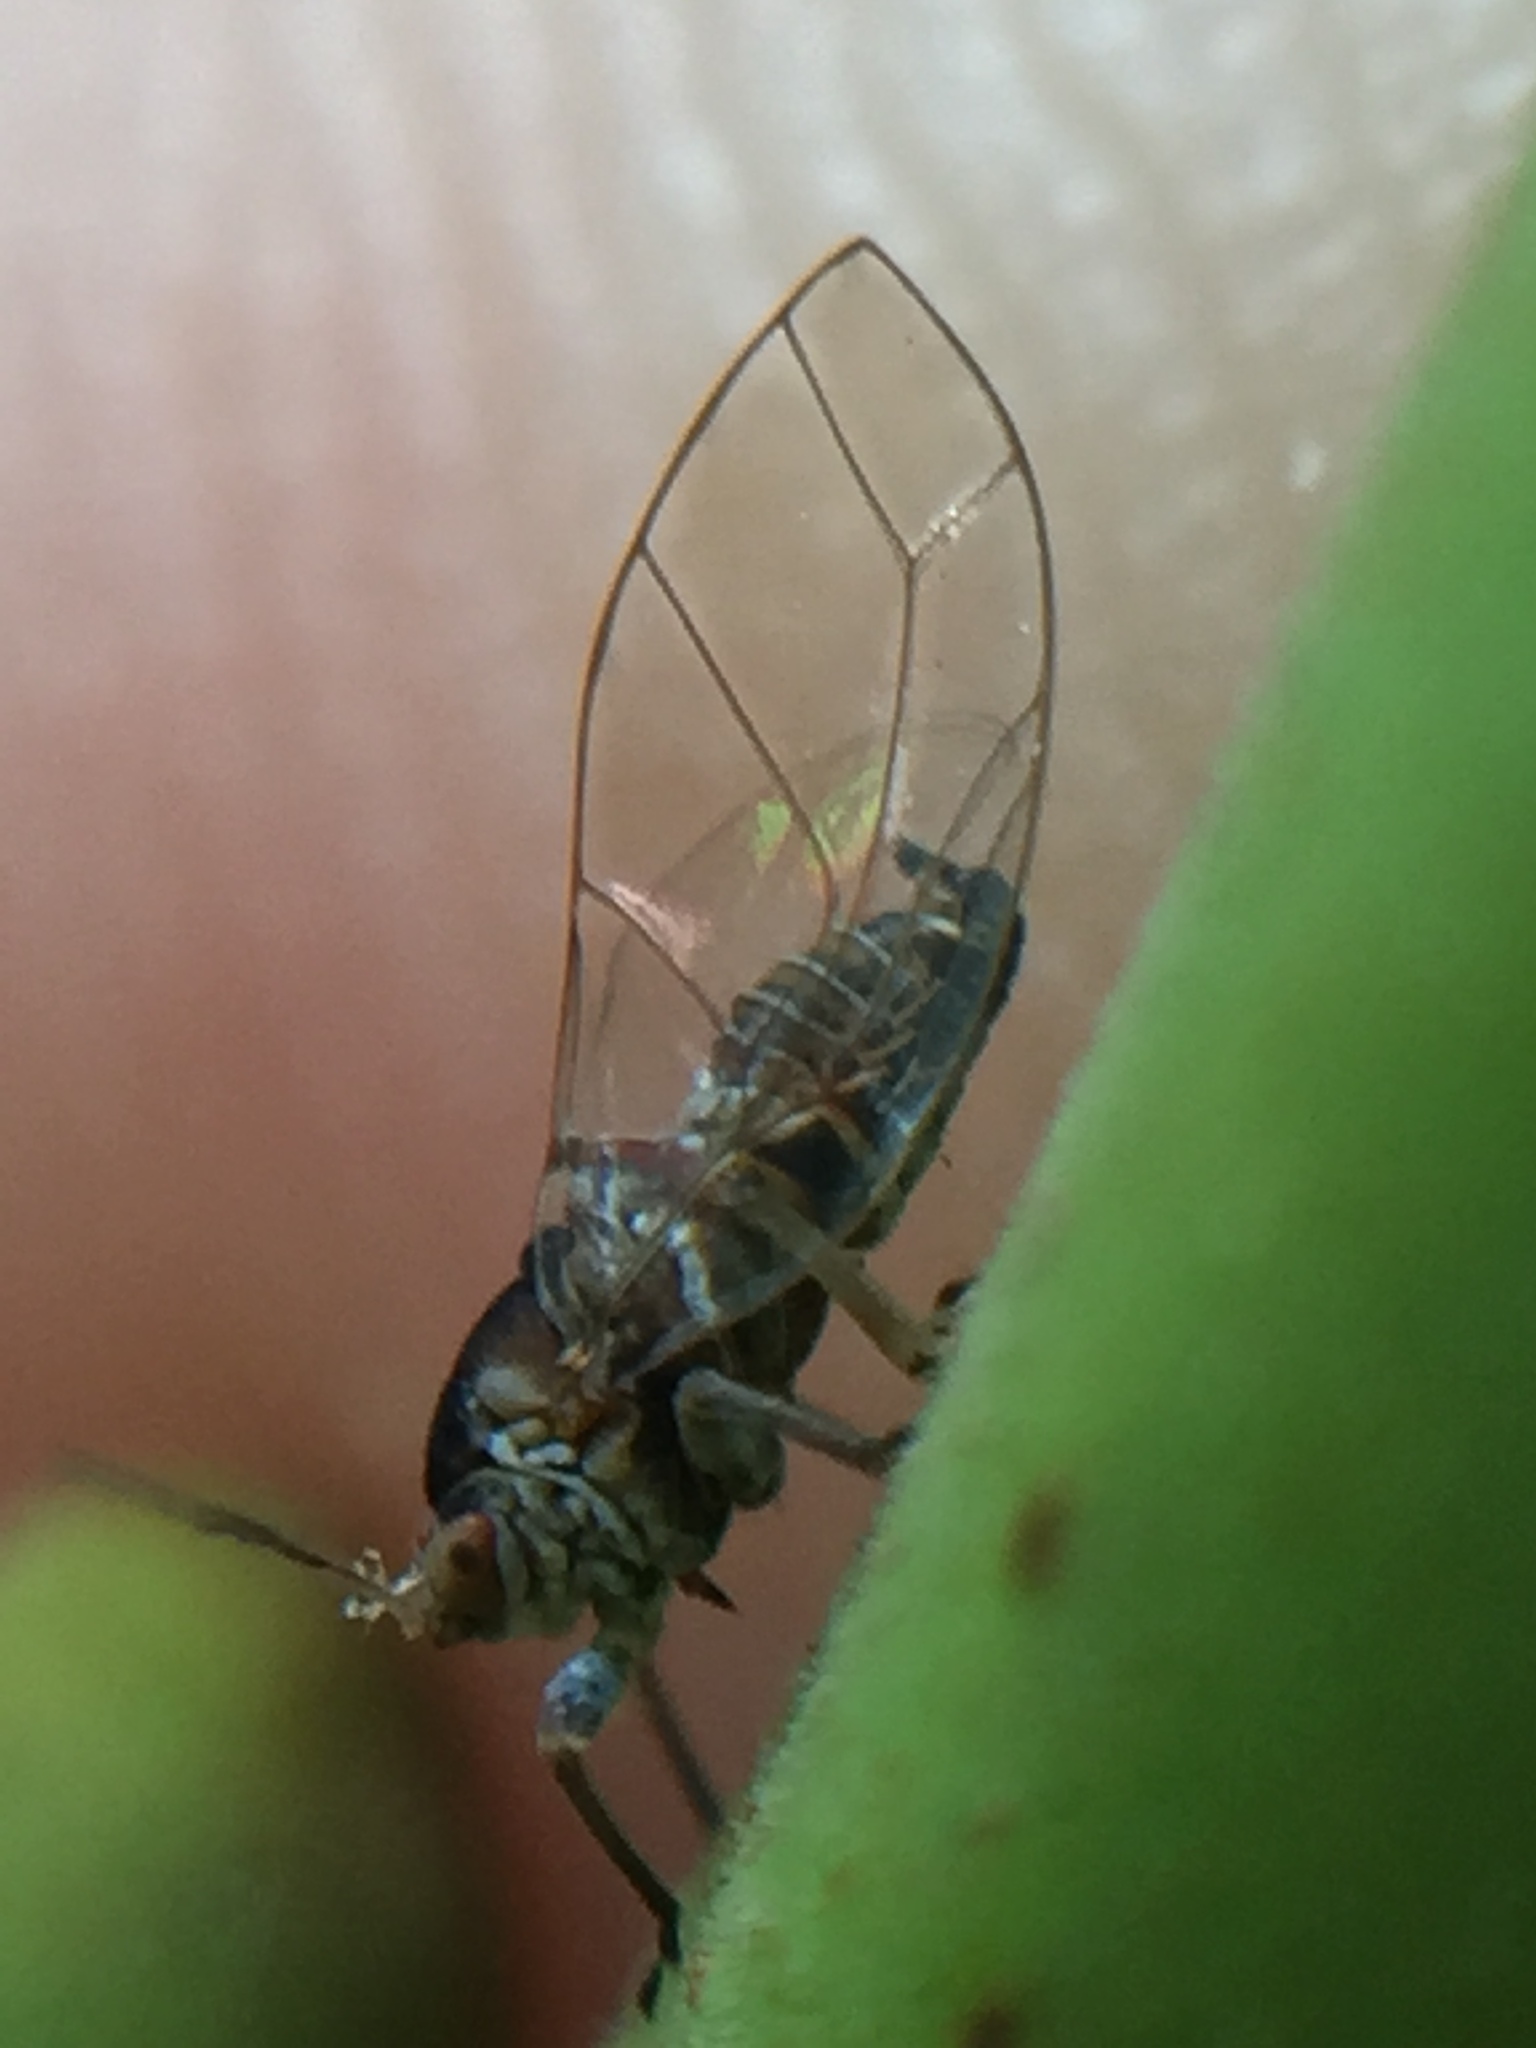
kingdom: Animalia
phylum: Arthropoda
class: Insecta
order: Hemiptera
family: Homotomidae
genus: Mycopsylla
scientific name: Mycopsylla obliqua
